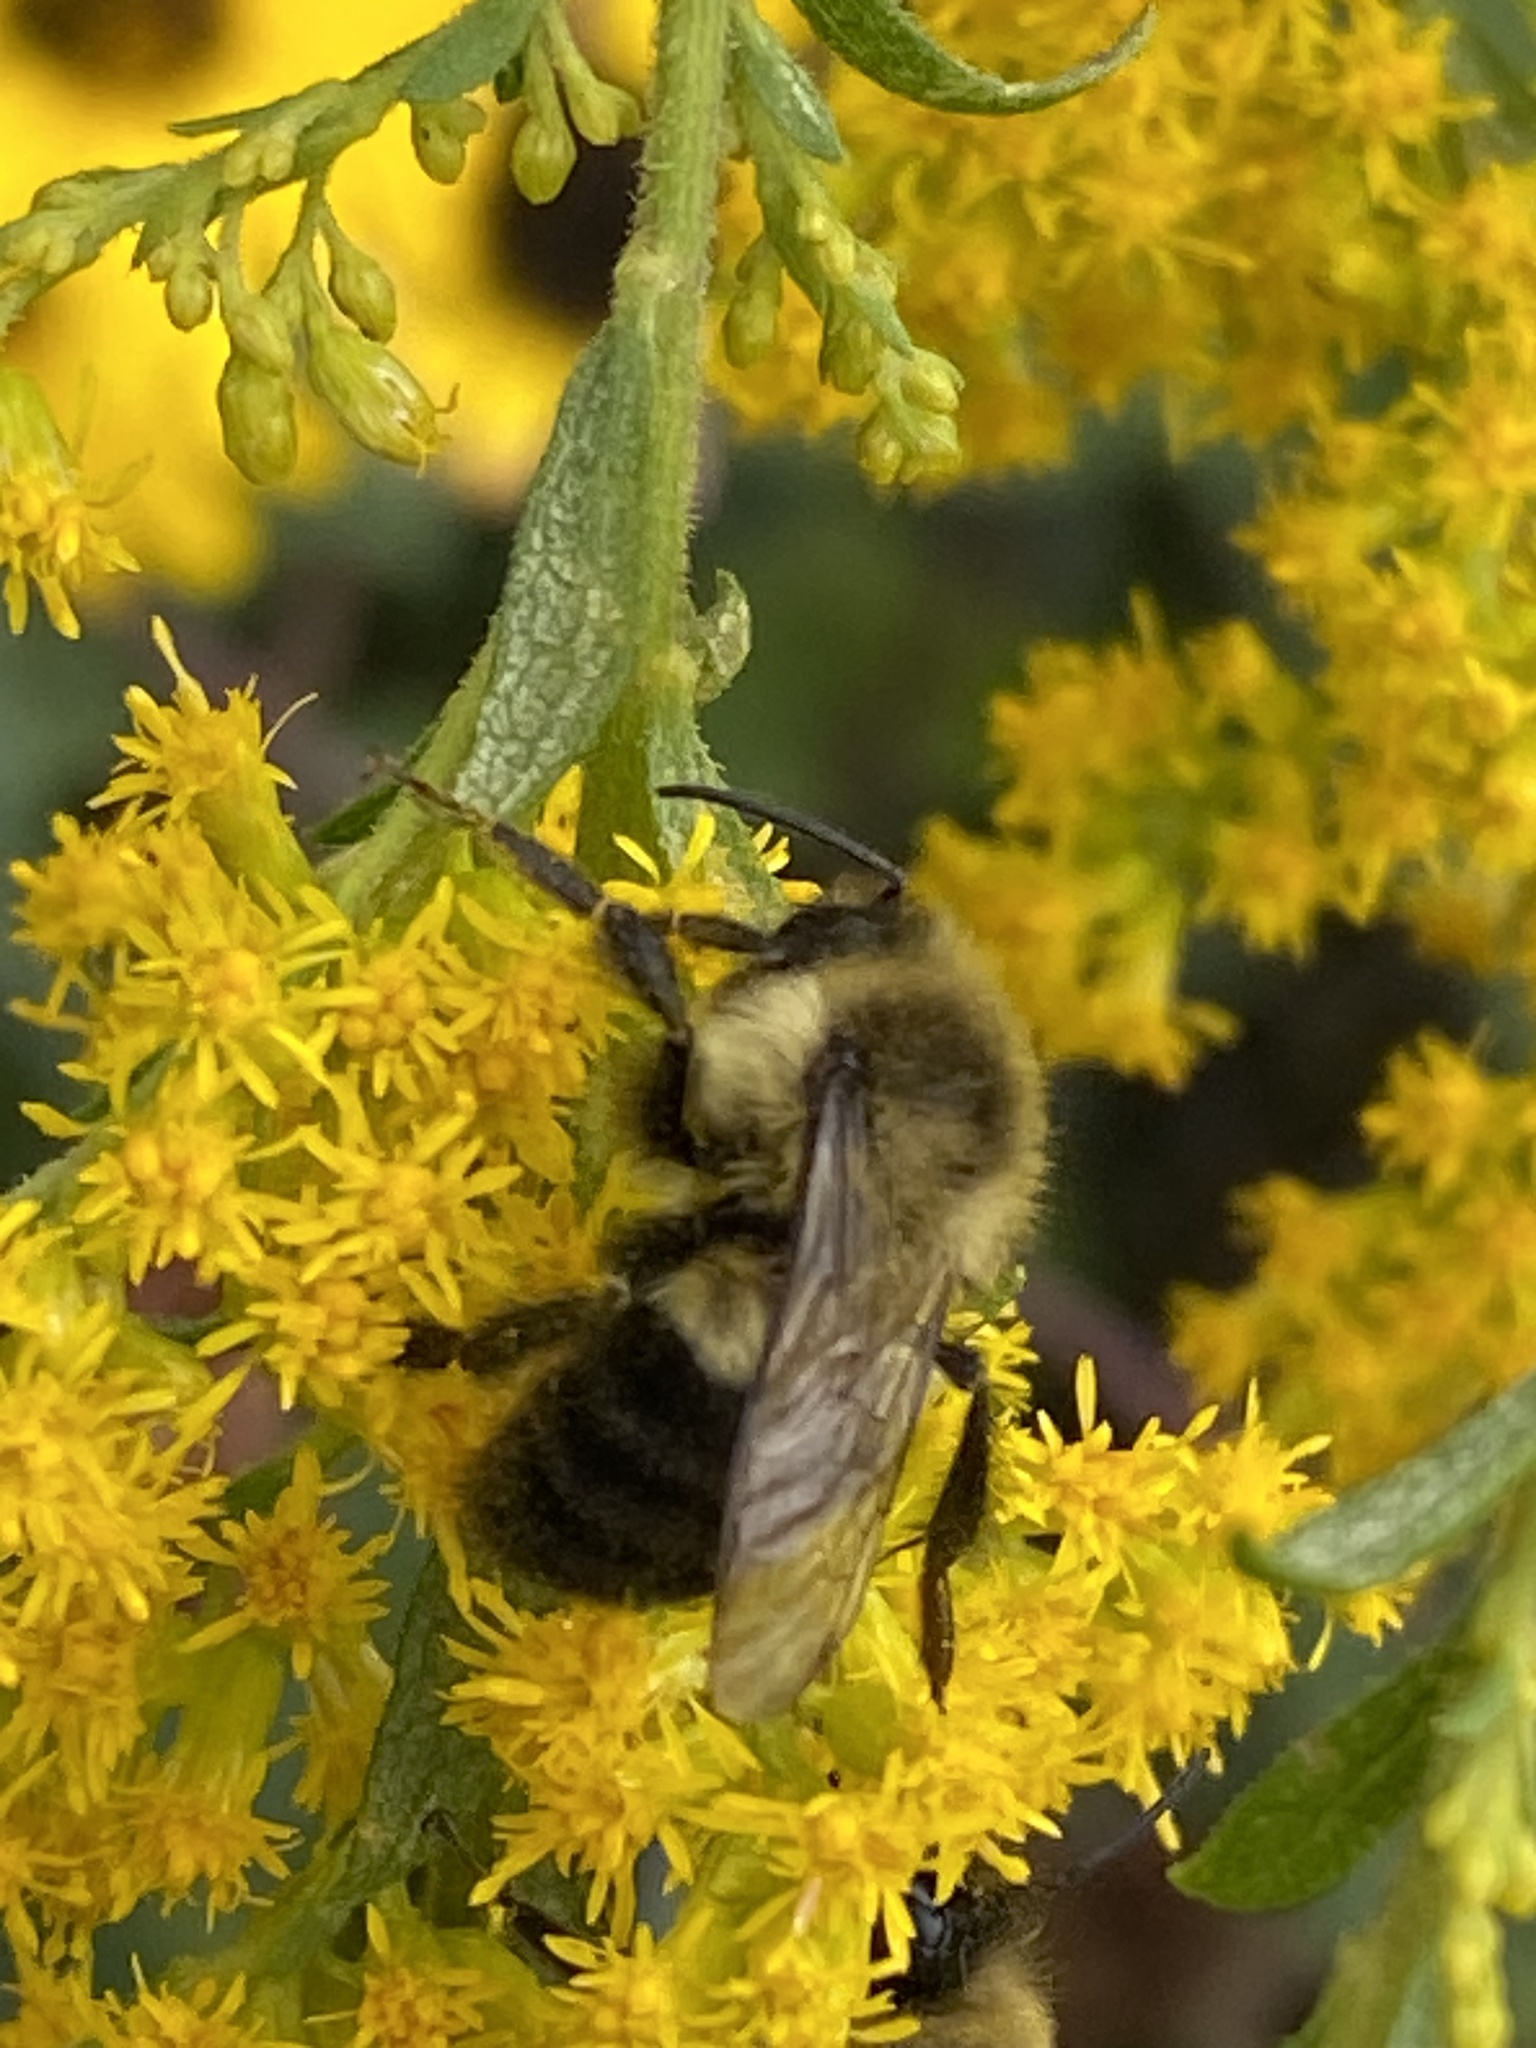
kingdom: Animalia
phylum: Arthropoda
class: Insecta
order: Hymenoptera
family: Apidae
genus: Bombus
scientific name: Bombus impatiens
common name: Common eastern bumble bee
